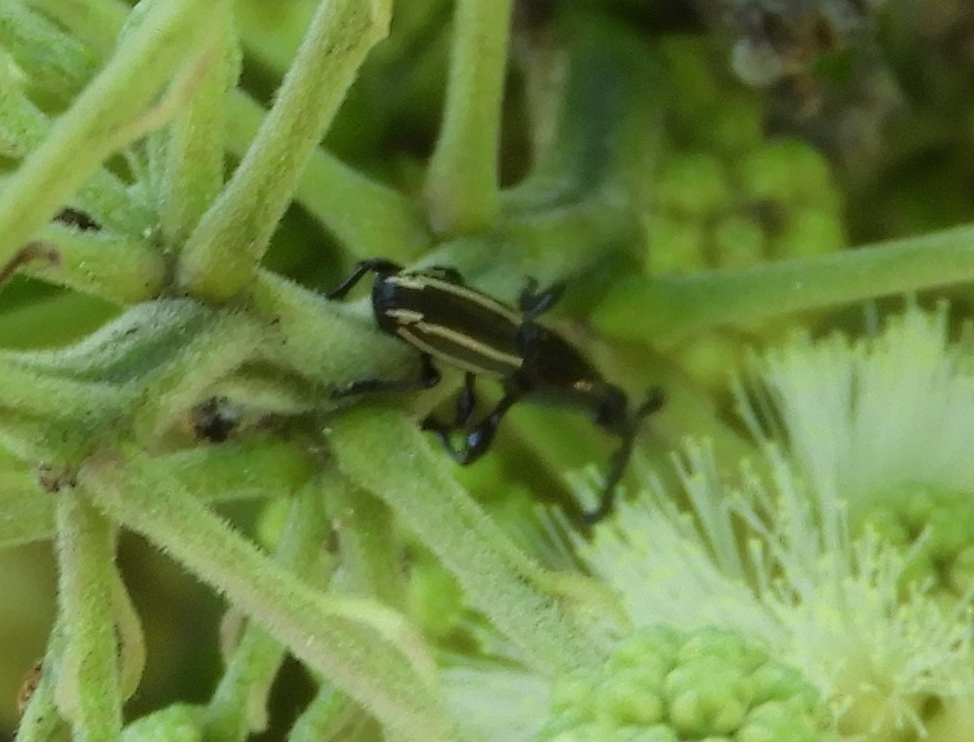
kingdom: Animalia
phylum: Arthropoda
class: Insecta
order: Coleoptera
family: Brentidae
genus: Brentus
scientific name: Brentus
